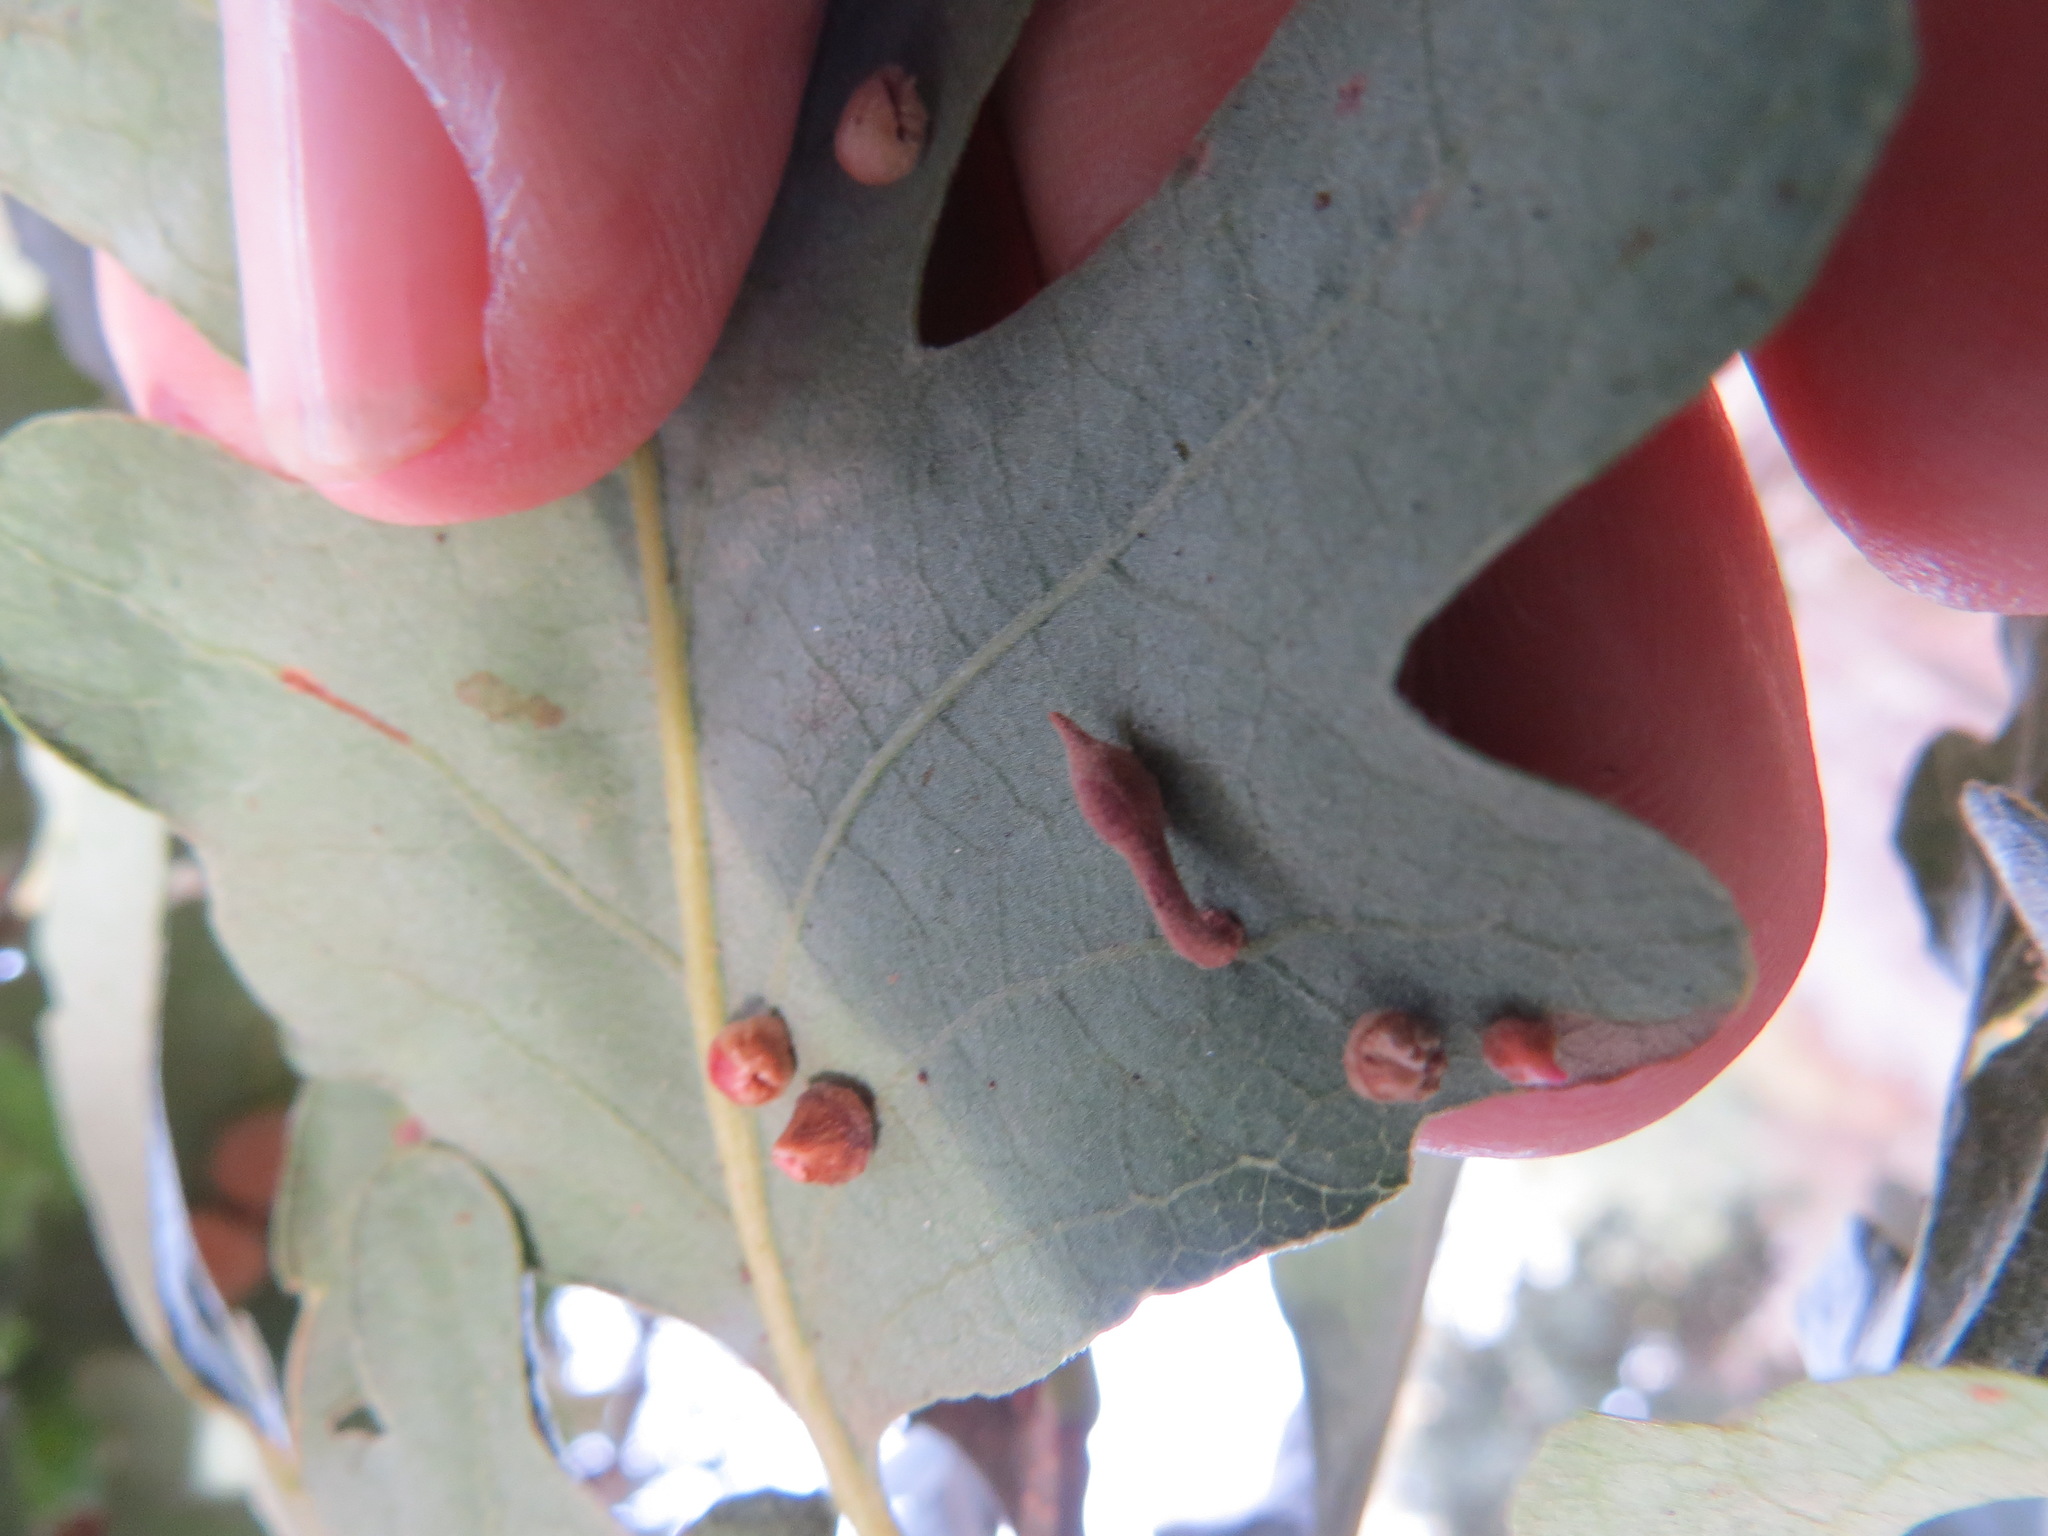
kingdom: Animalia
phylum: Arthropoda
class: Insecta
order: Hymenoptera
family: Cynipidae
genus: Atrusca
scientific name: Atrusca
